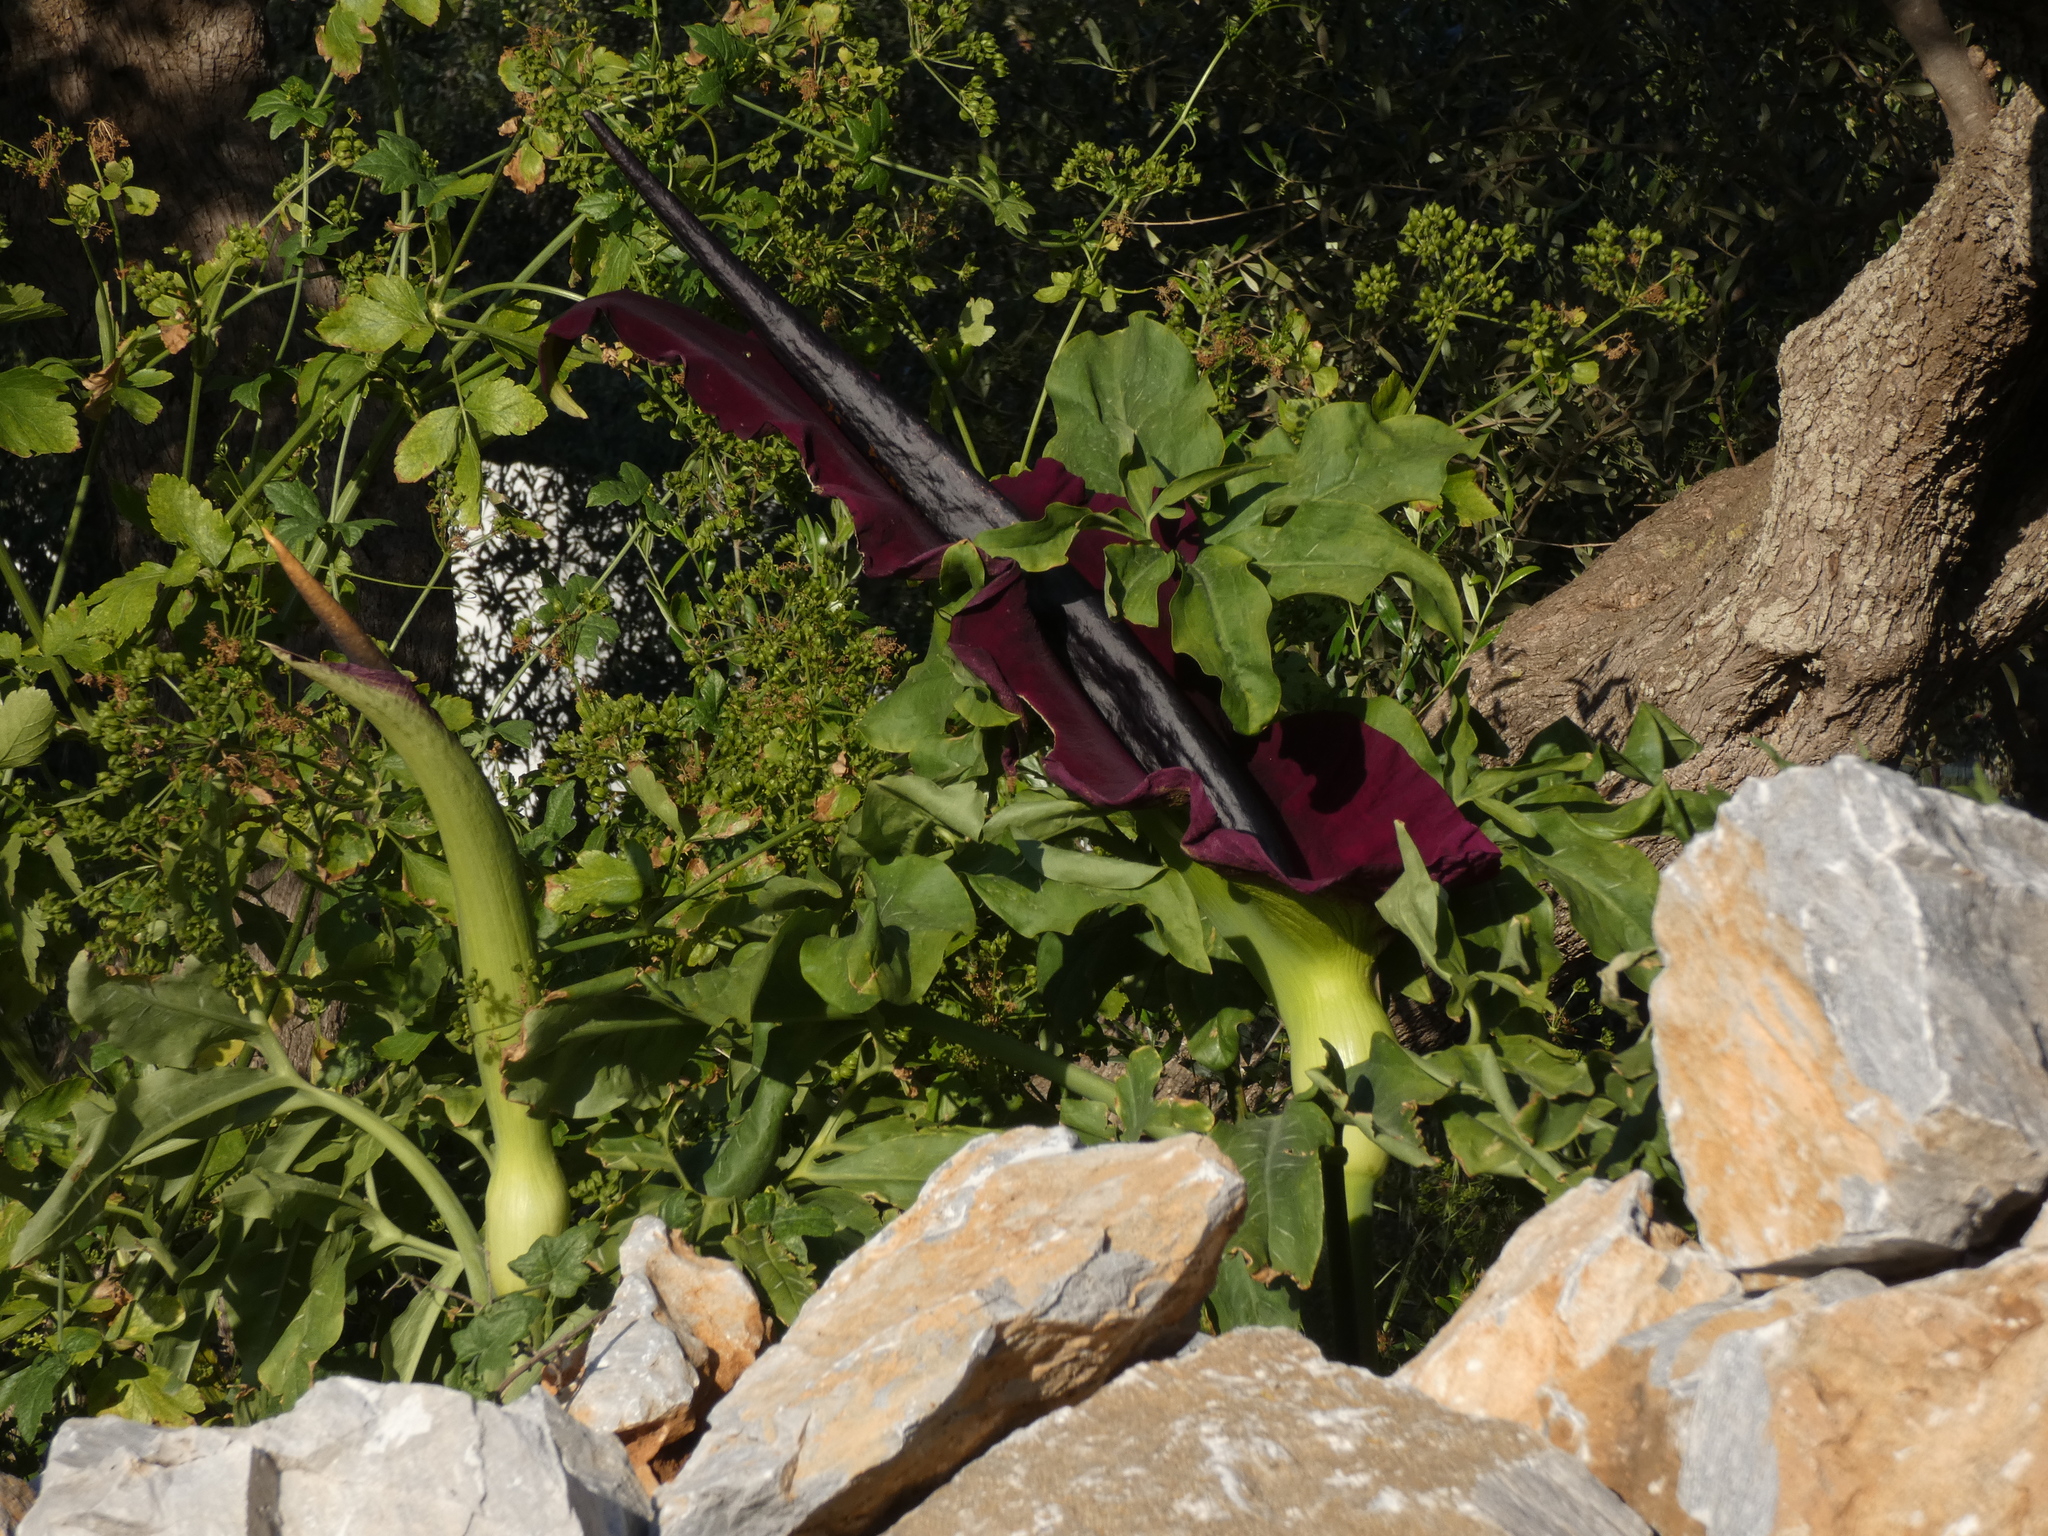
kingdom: Plantae
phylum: Tracheophyta
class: Liliopsida
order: Alismatales
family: Araceae
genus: Dracunculus
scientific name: Dracunculus vulgaris
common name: Dragon arum
